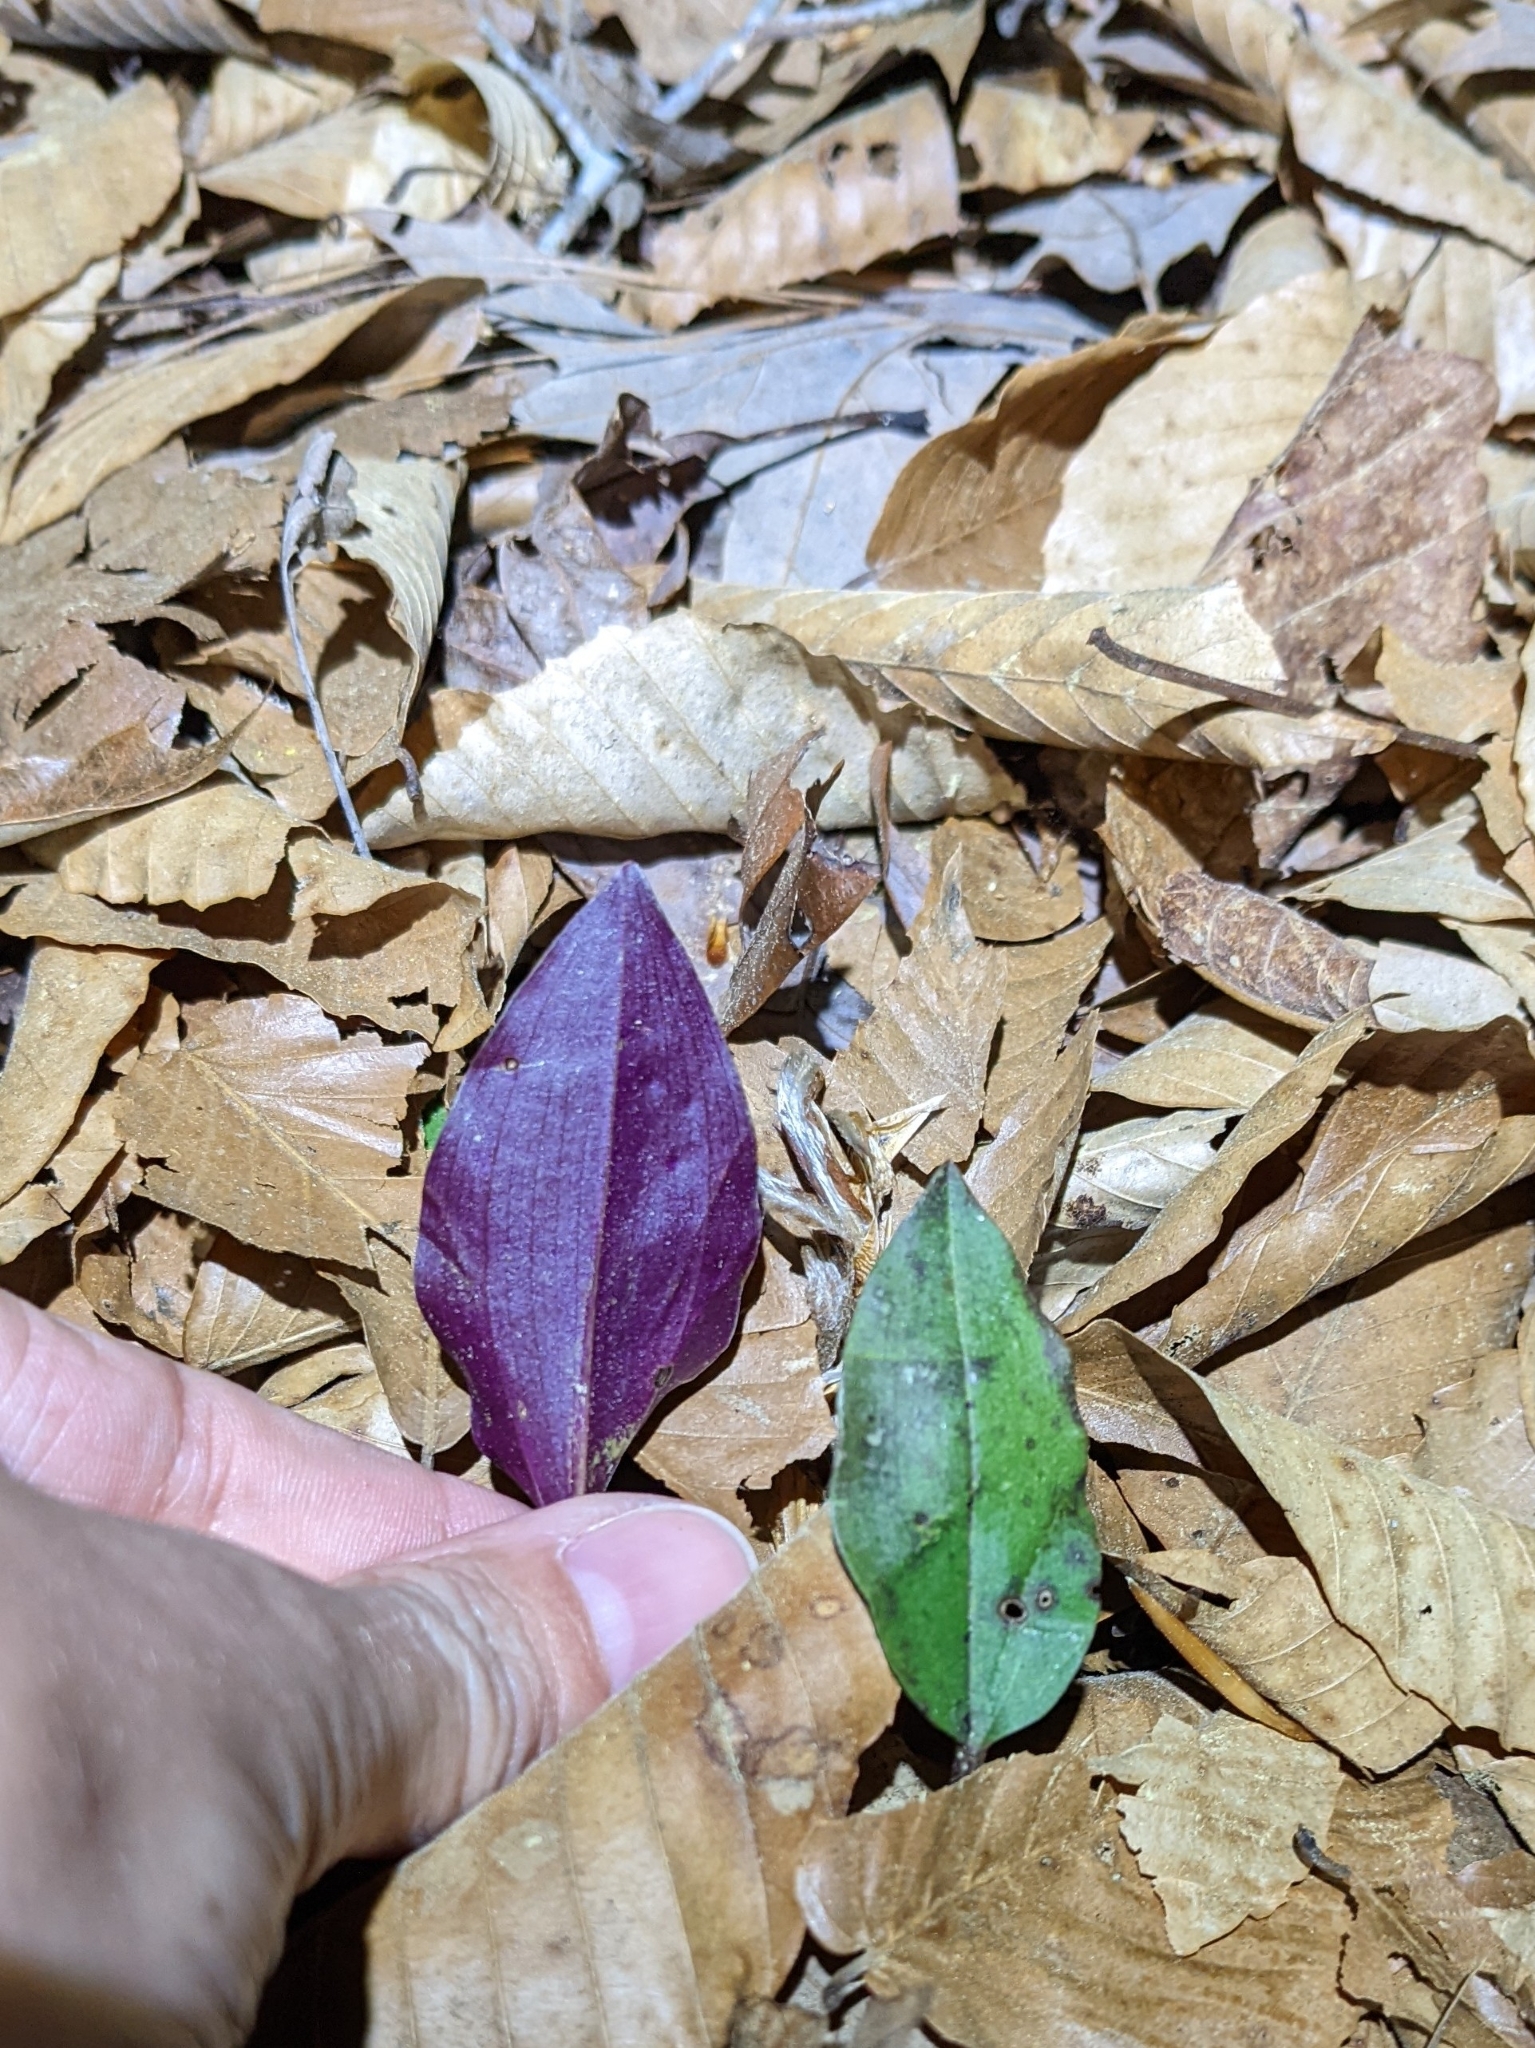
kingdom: Plantae
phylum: Tracheophyta
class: Liliopsida
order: Asparagales
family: Orchidaceae
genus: Tipularia
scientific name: Tipularia discolor
